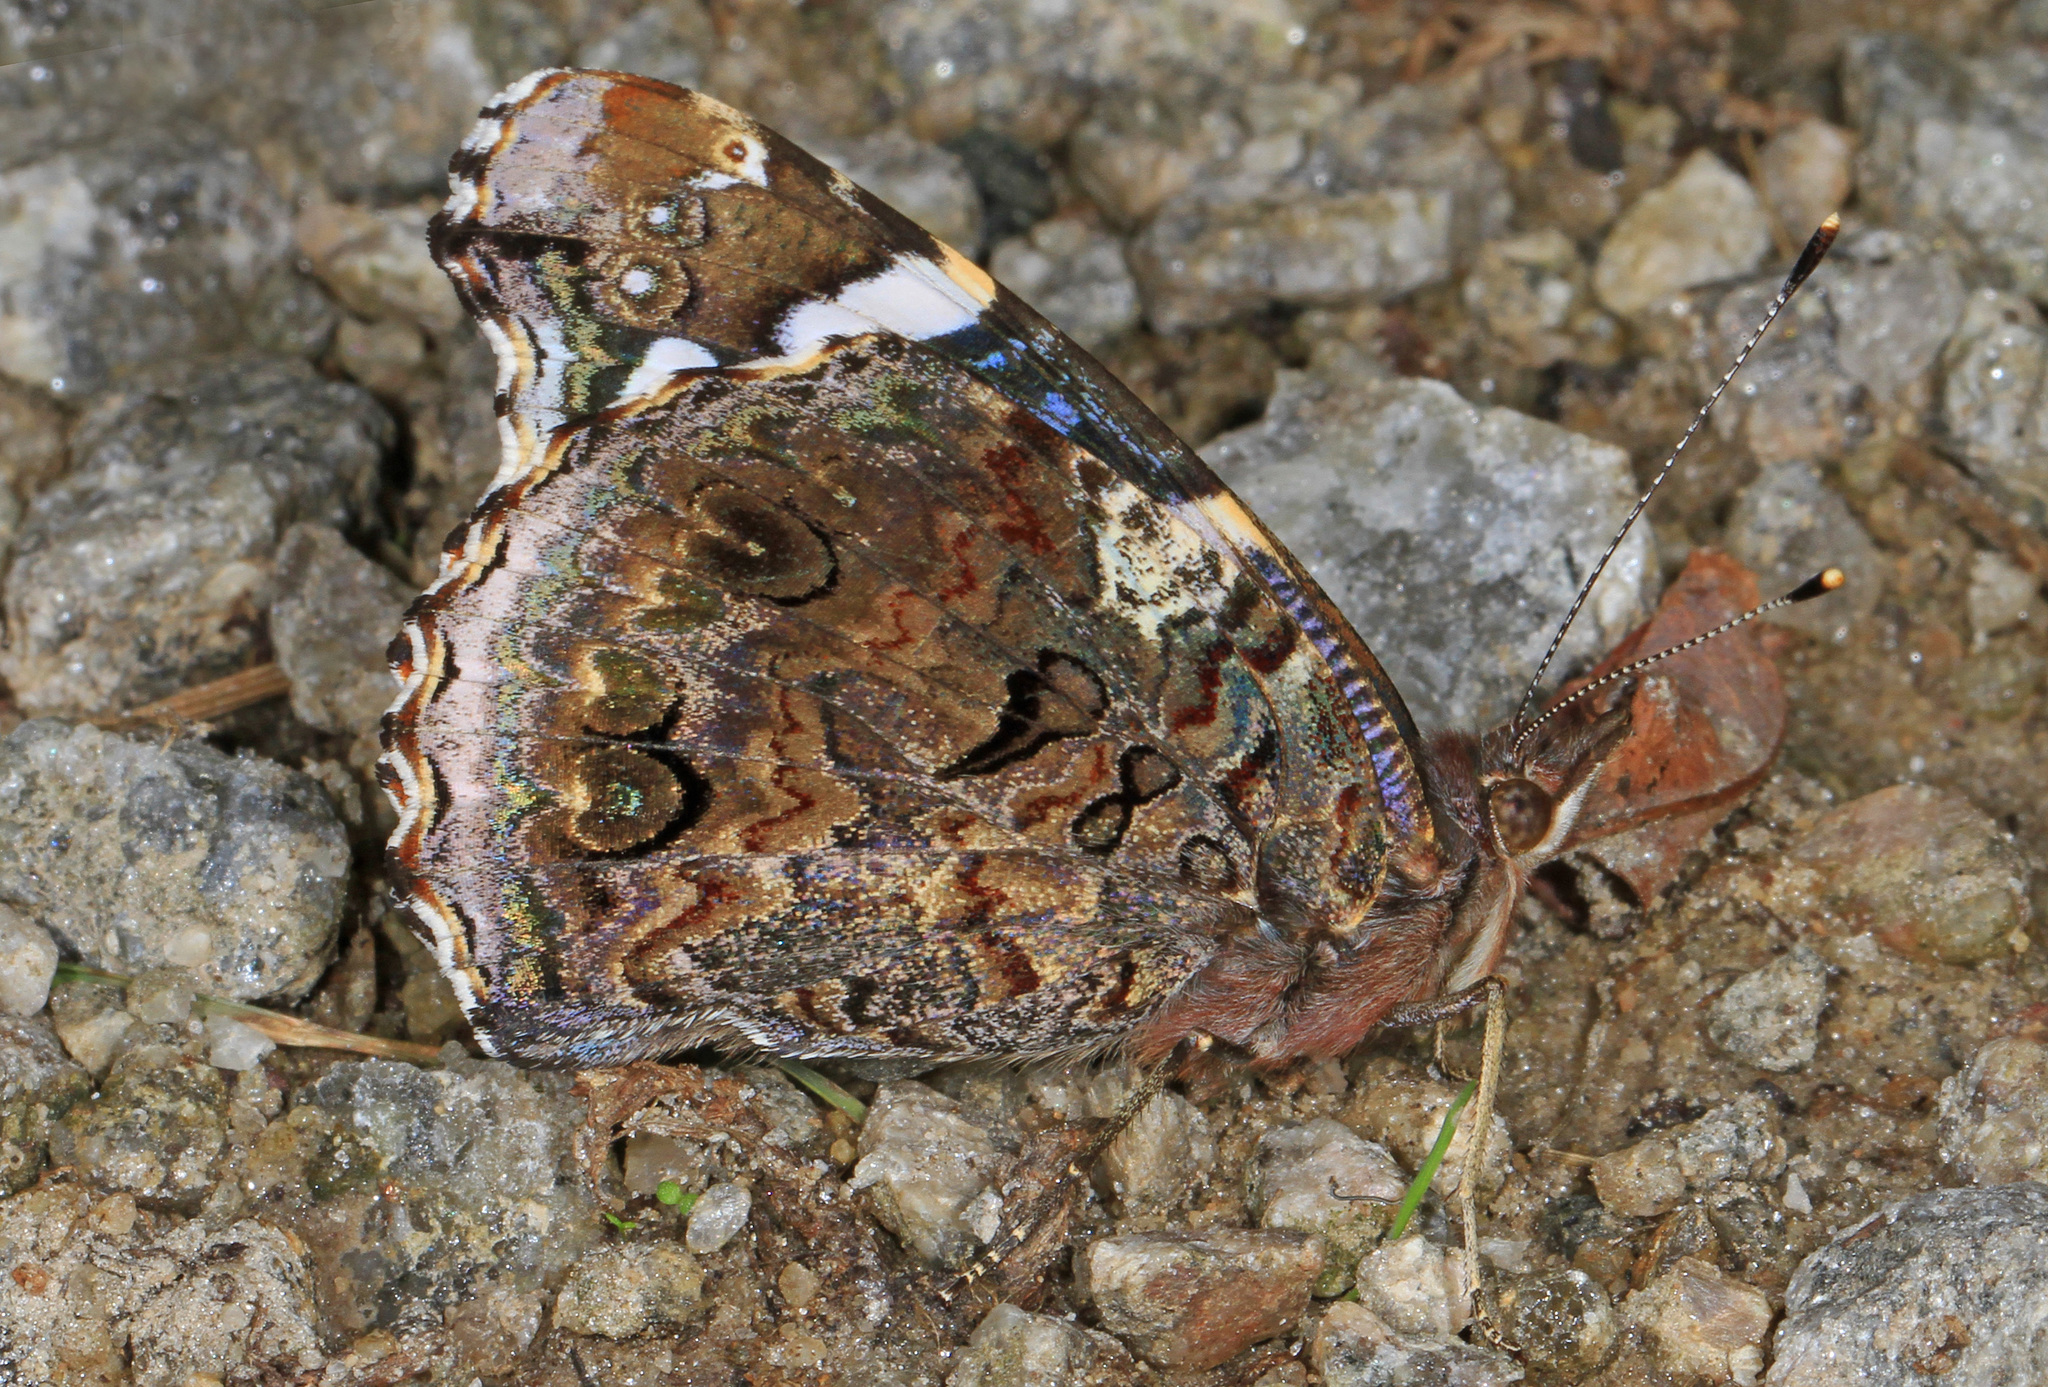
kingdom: Animalia
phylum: Arthropoda
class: Insecta
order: Lepidoptera
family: Nymphalidae
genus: Vanessa
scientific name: Vanessa atalanta
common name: Red admiral
